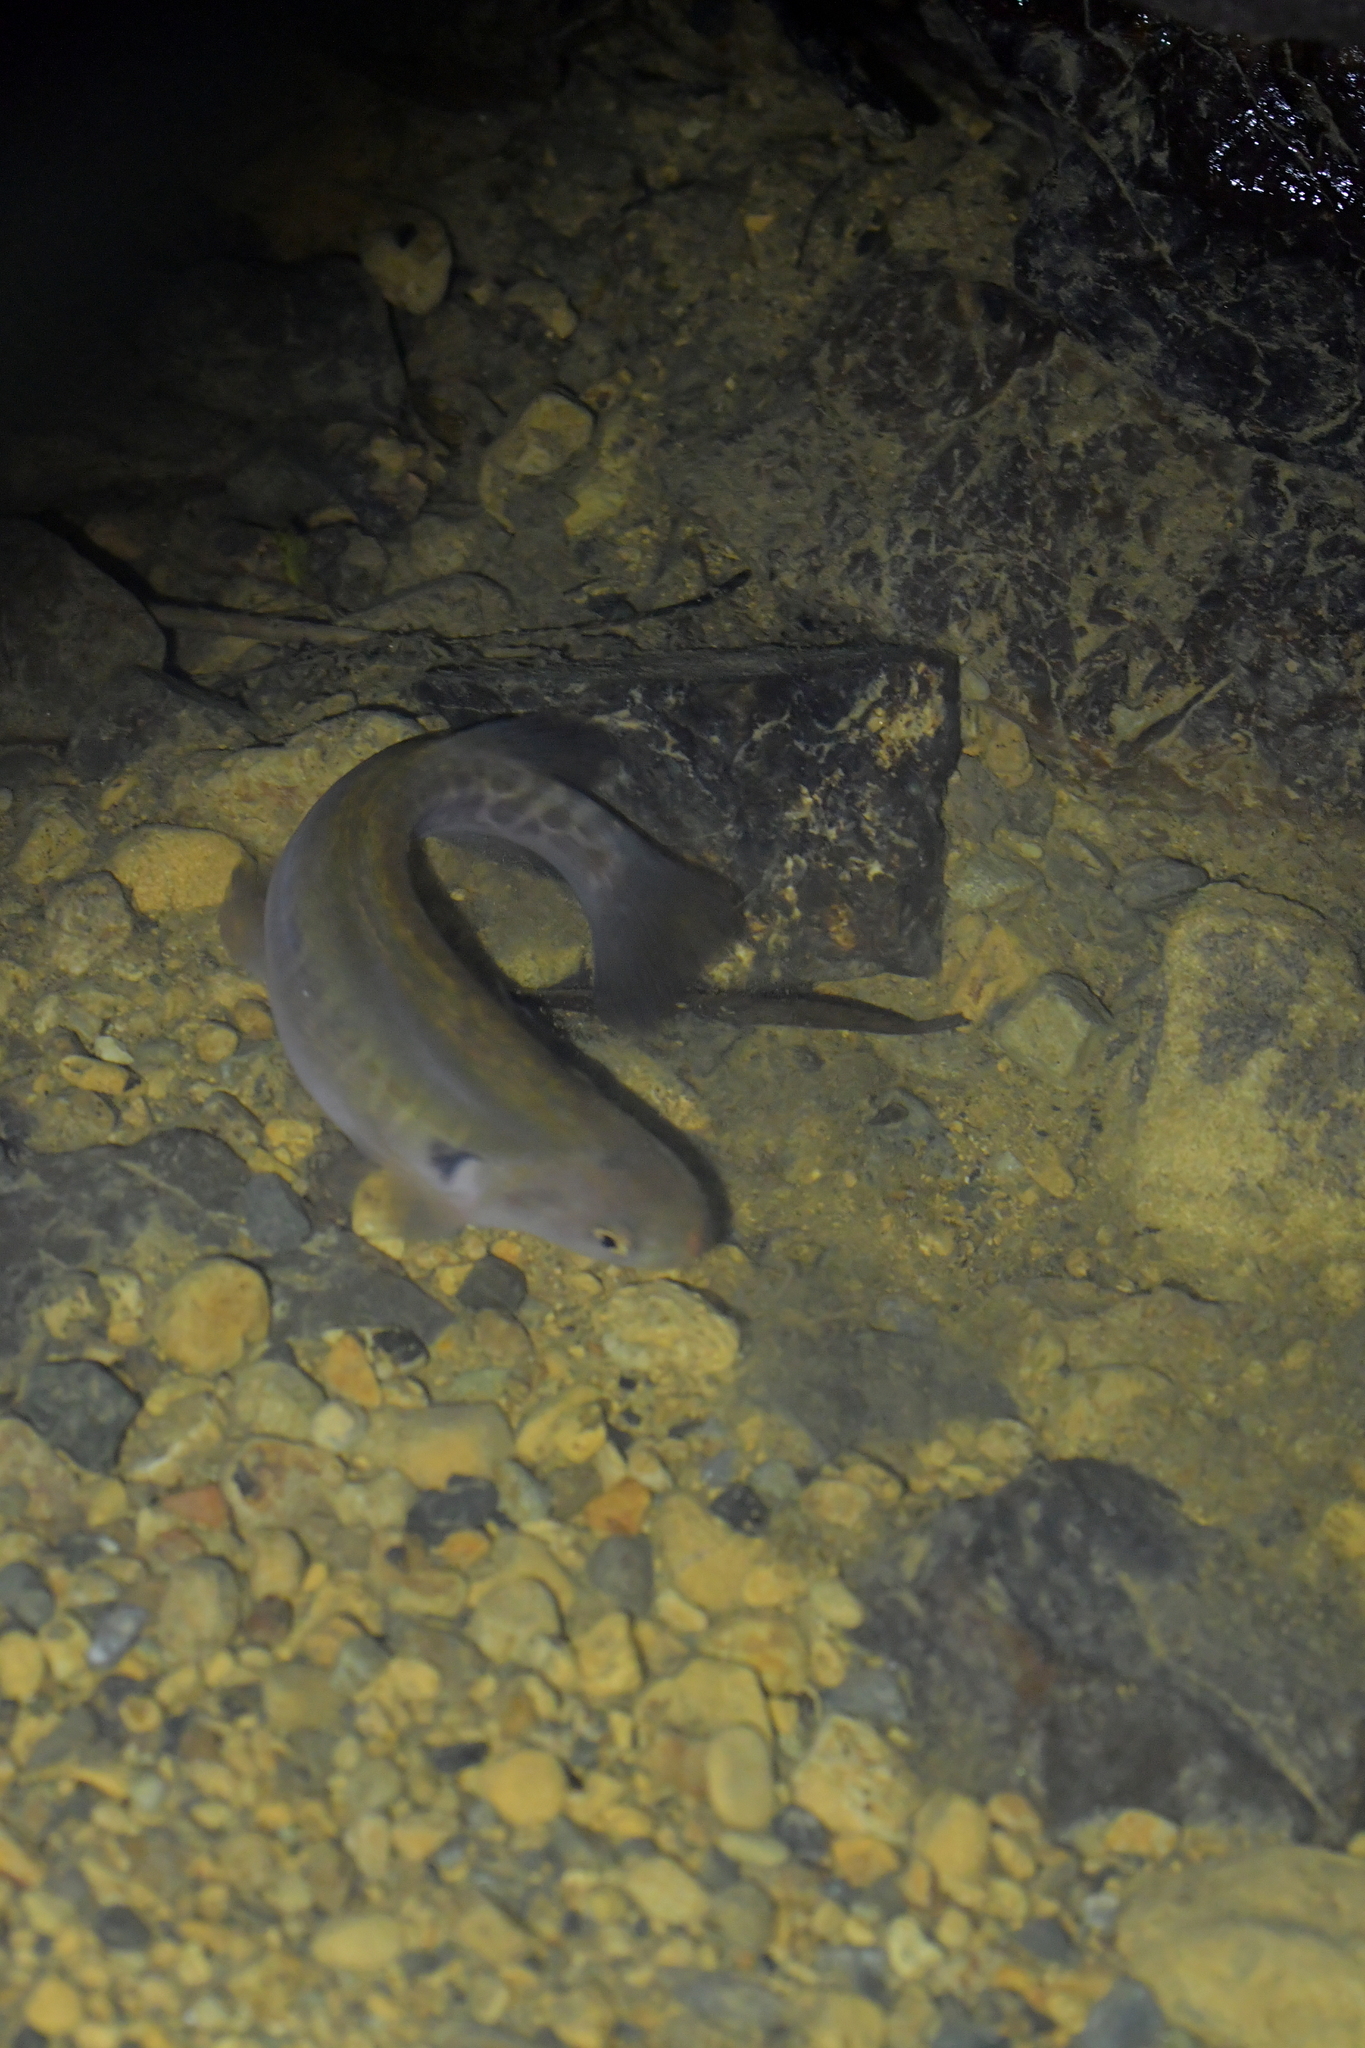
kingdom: Animalia
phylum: Chordata
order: Osmeriformes
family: Galaxiidae
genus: Galaxias
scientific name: Galaxias fasciatus
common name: Banded kokopu
